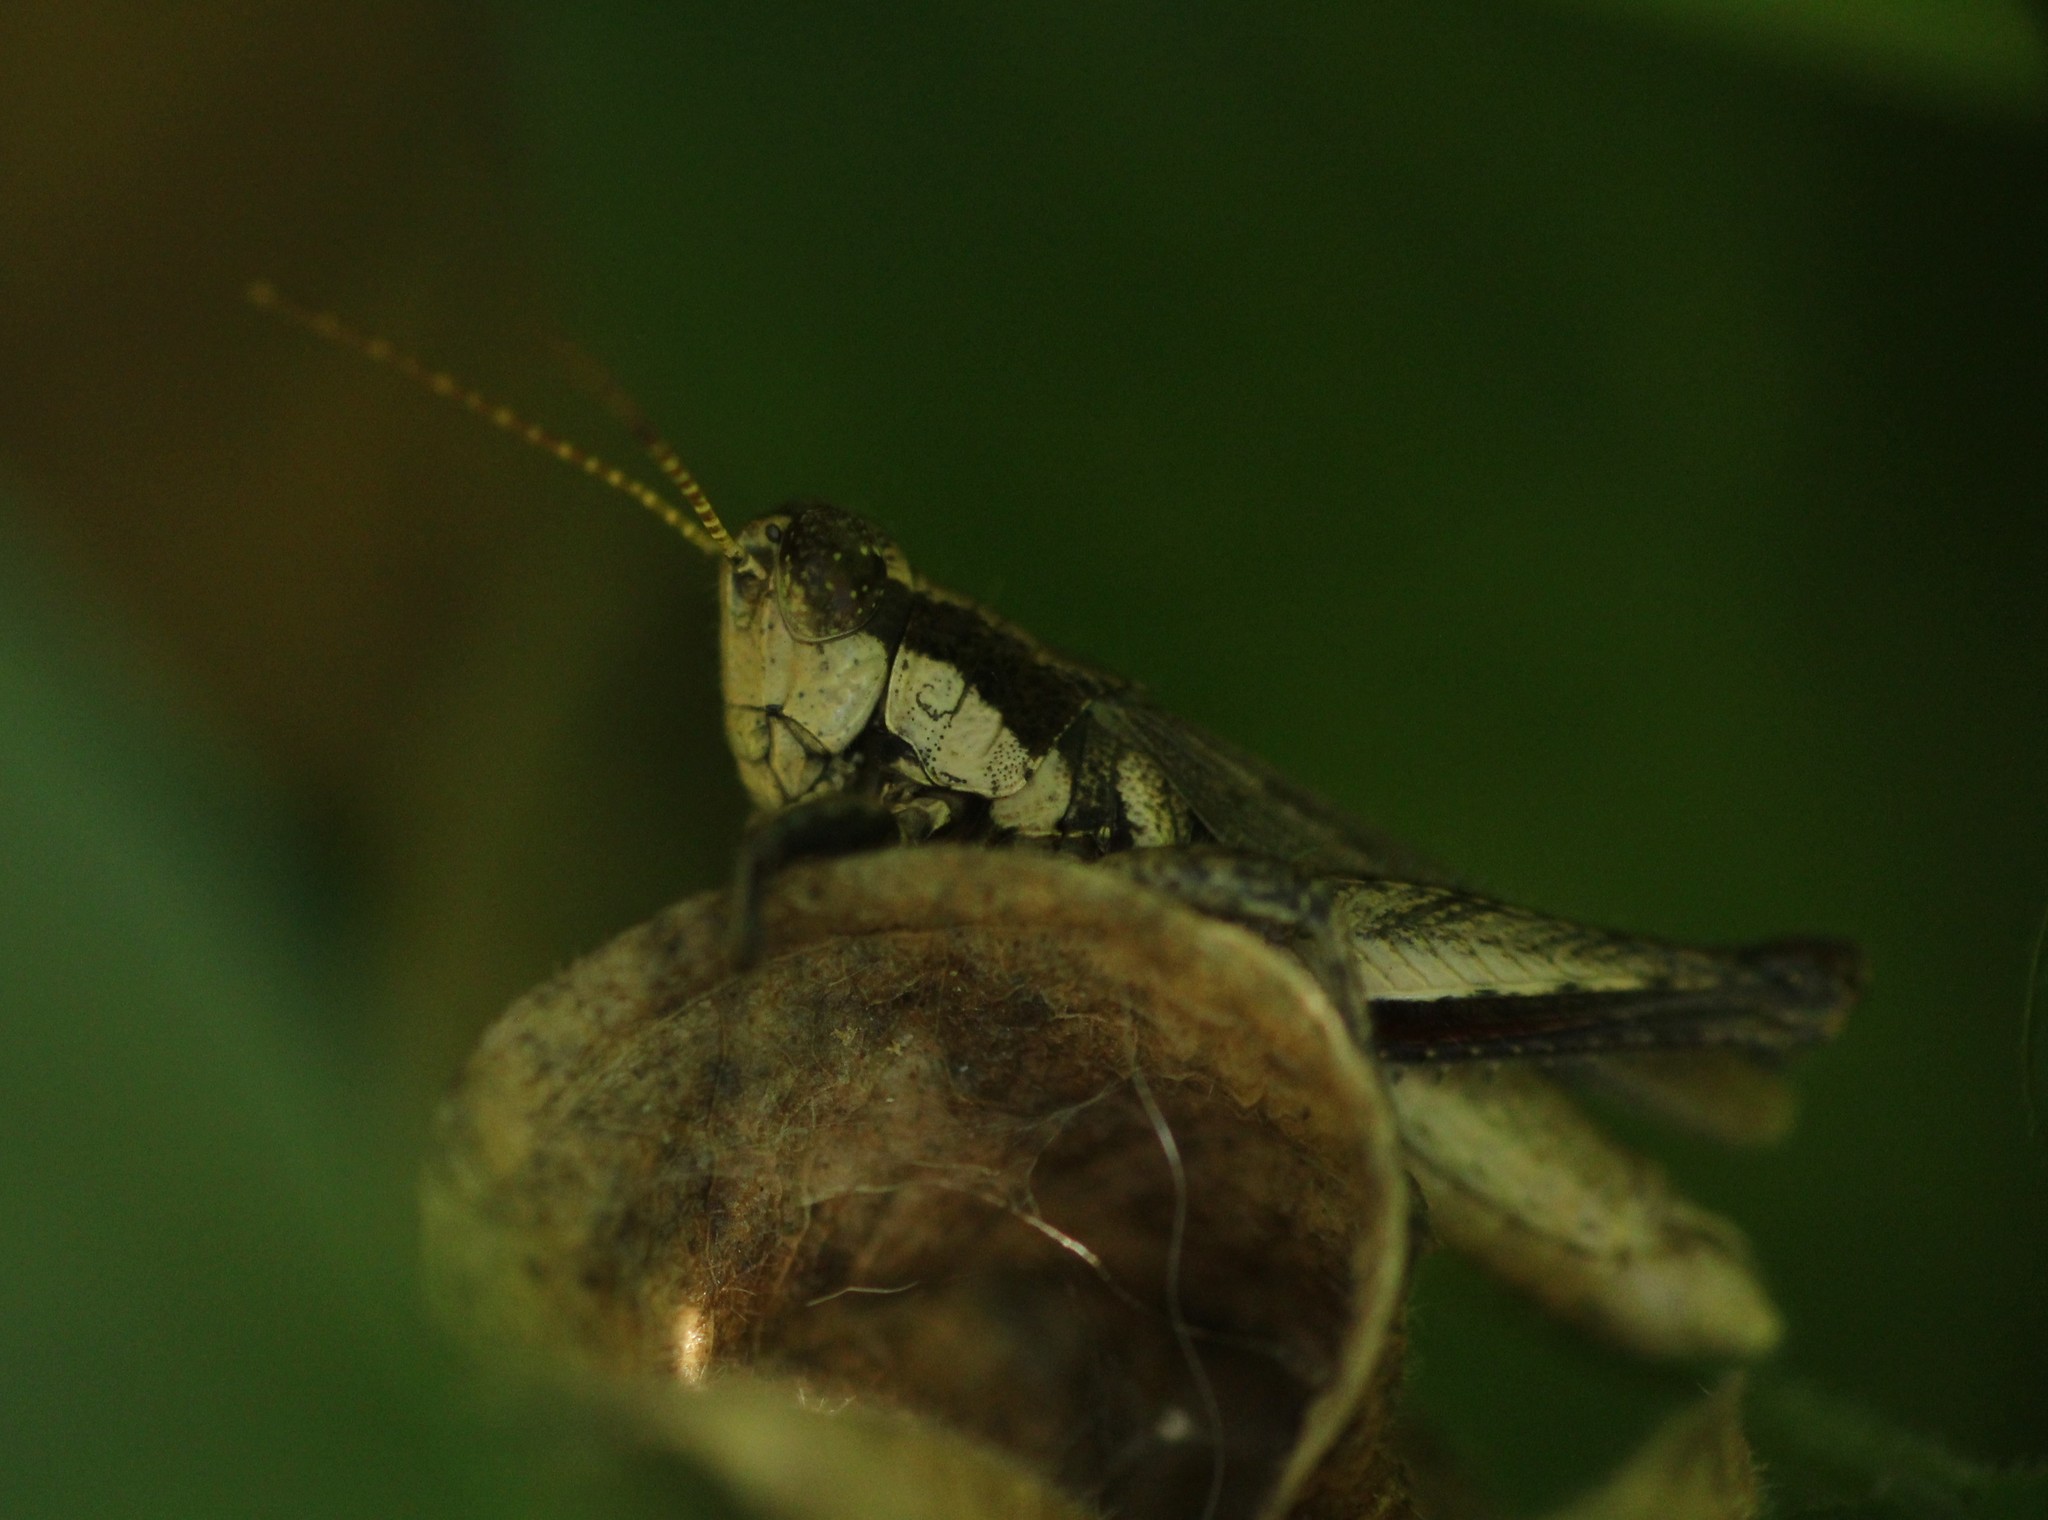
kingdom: Animalia
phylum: Arthropoda
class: Insecta
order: Orthoptera
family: Acrididae
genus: Ronderosia
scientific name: Ronderosia bergii
